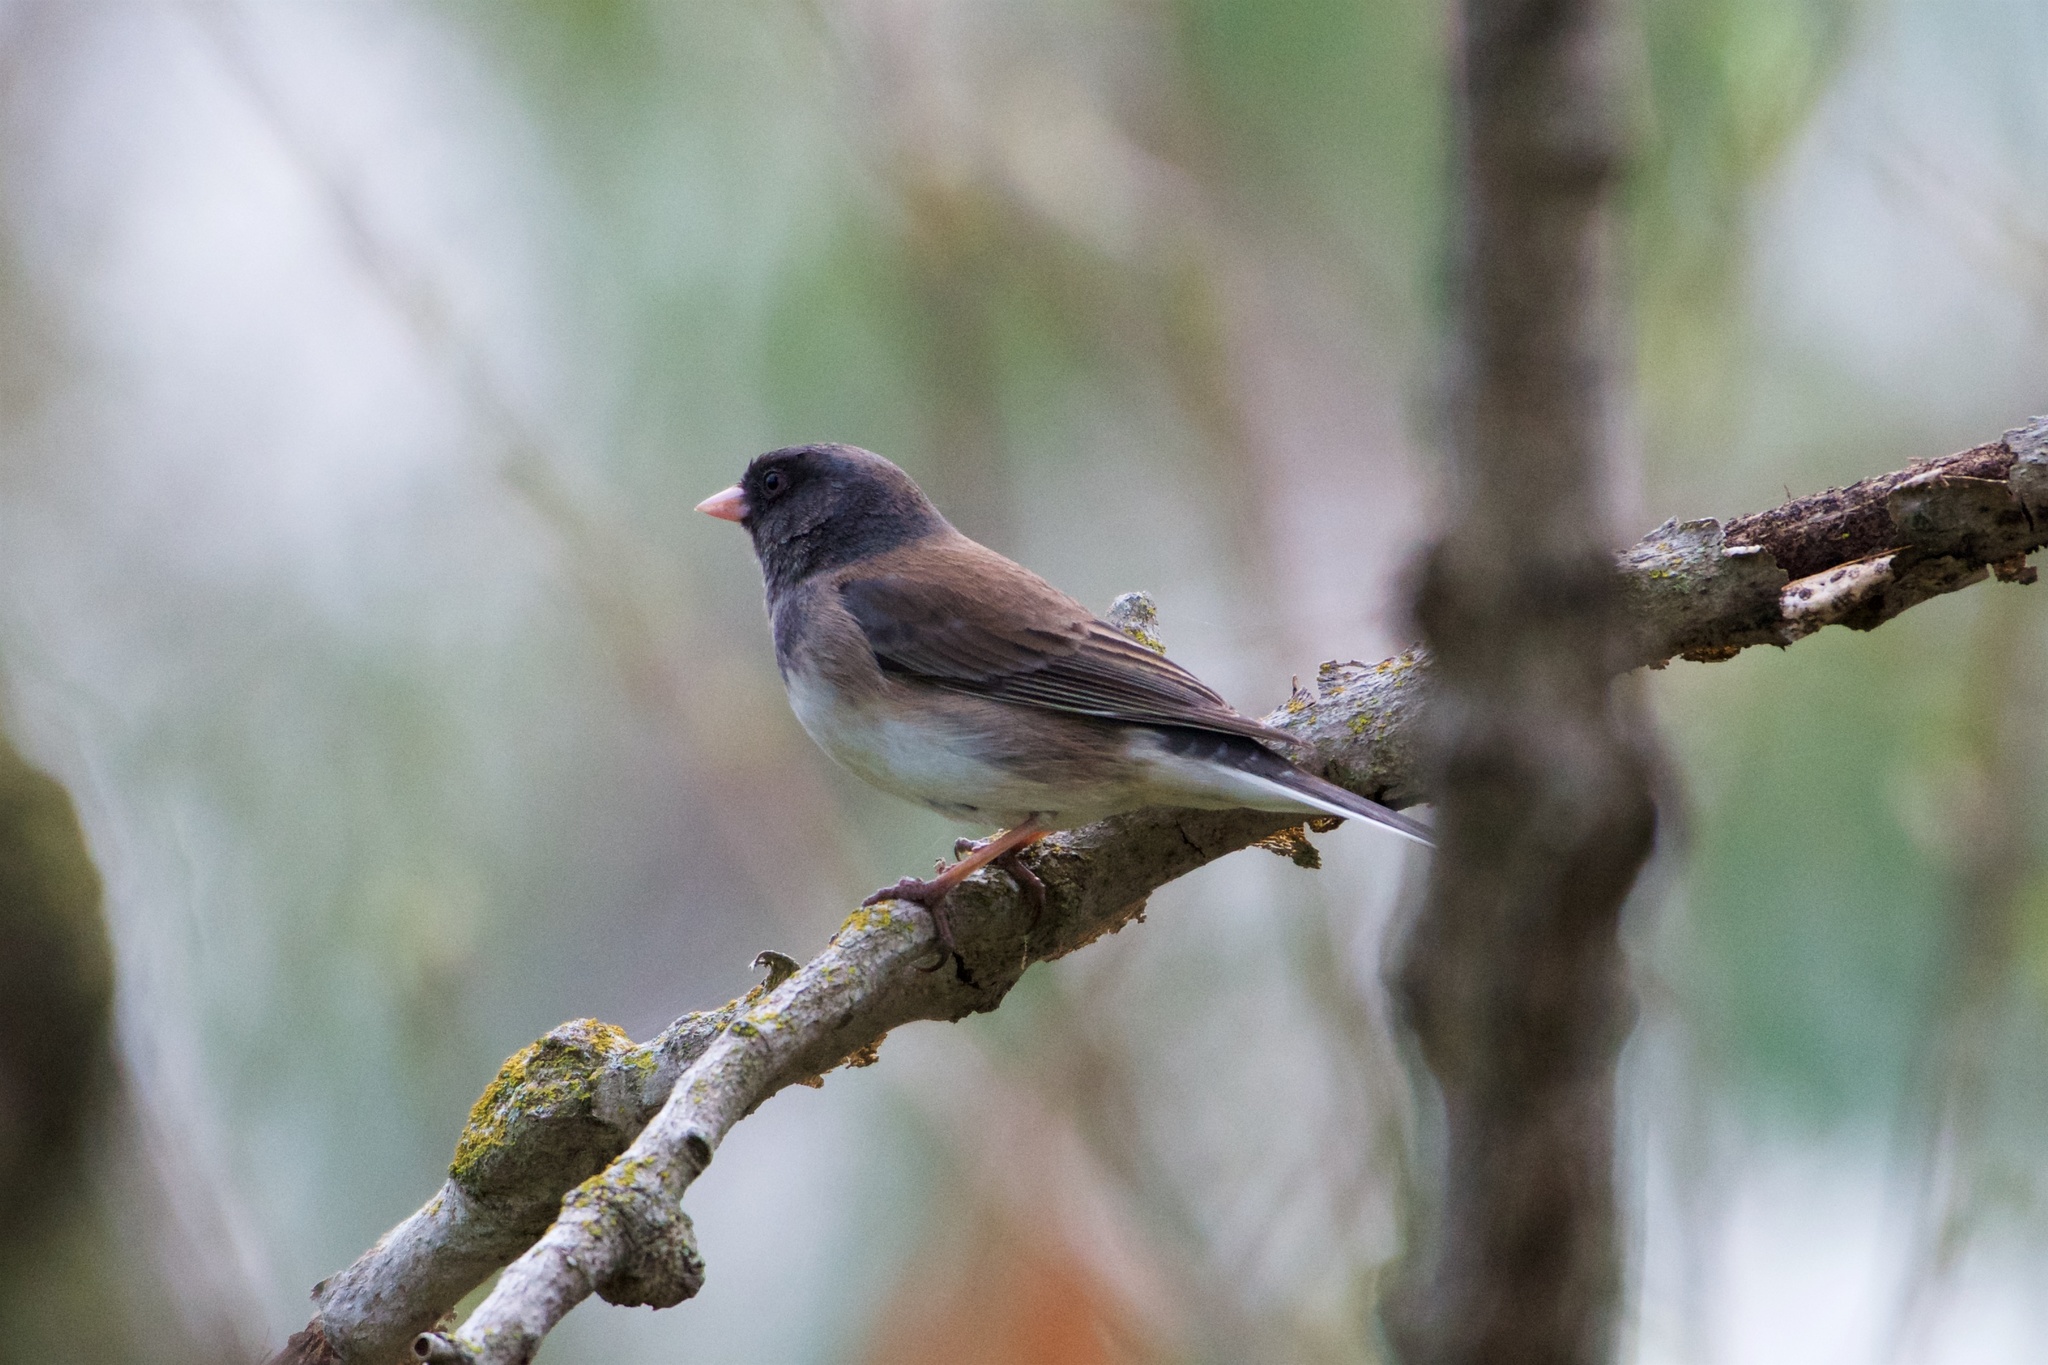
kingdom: Animalia
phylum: Chordata
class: Aves
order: Passeriformes
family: Passerellidae
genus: Junco
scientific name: Junco hyemalis
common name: Dark-eyed junco
